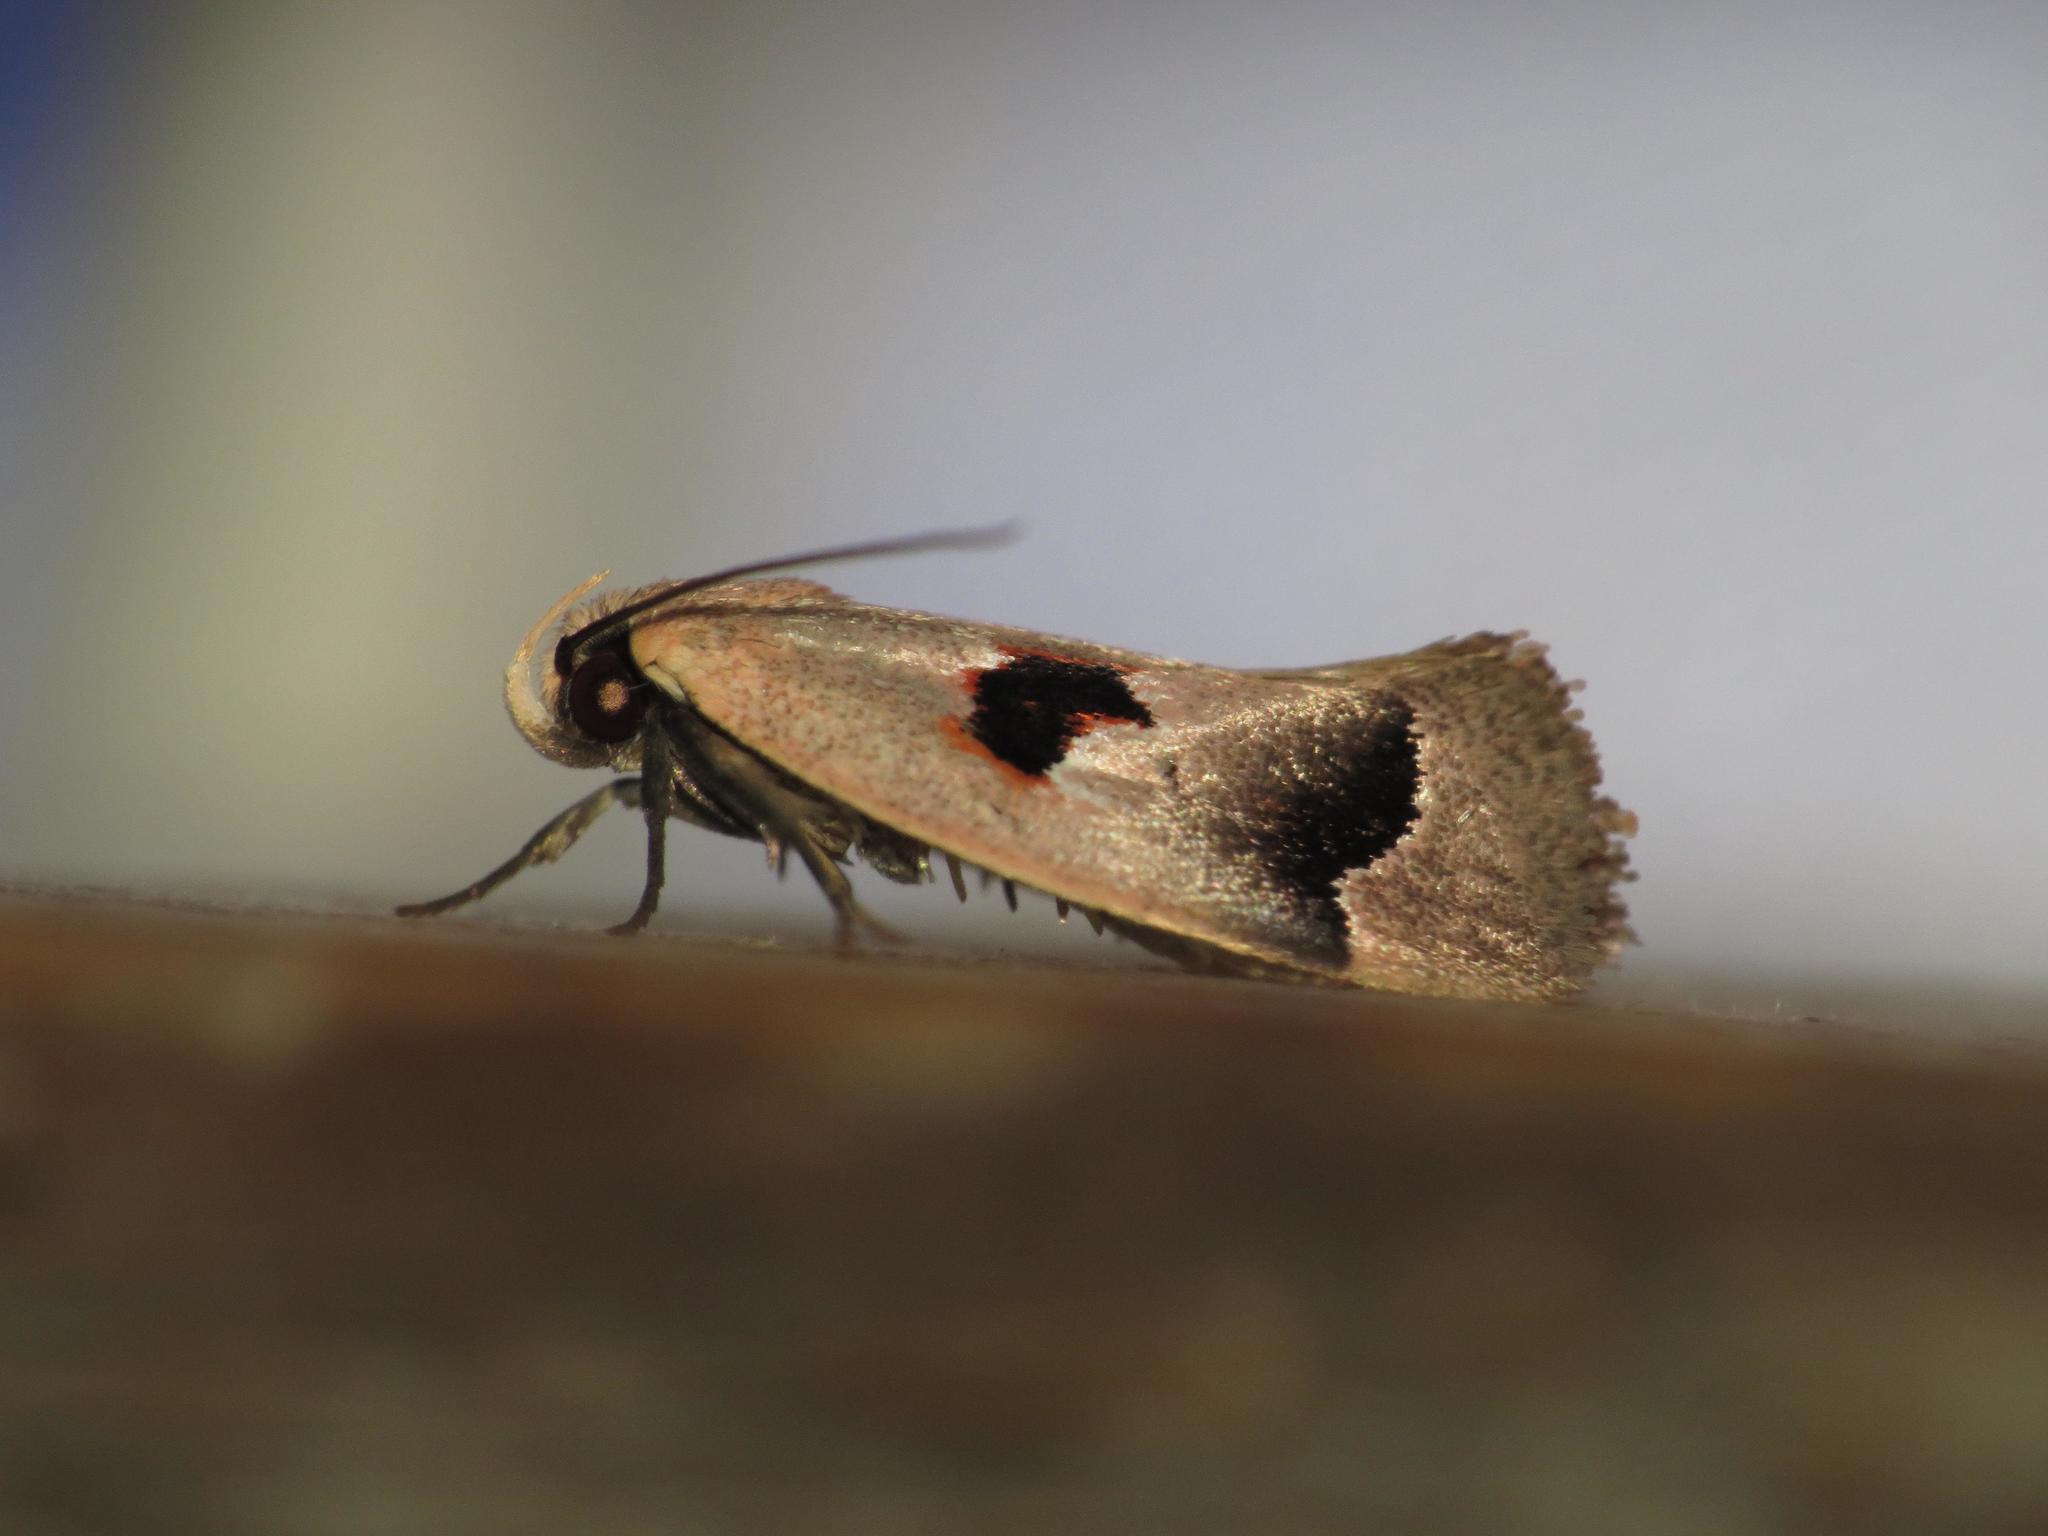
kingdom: Animalia
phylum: Arthropoda
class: Insecta
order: Lepidoptera
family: Oecophoridae
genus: Acanthodela
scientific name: Acanthodela erythrosema
